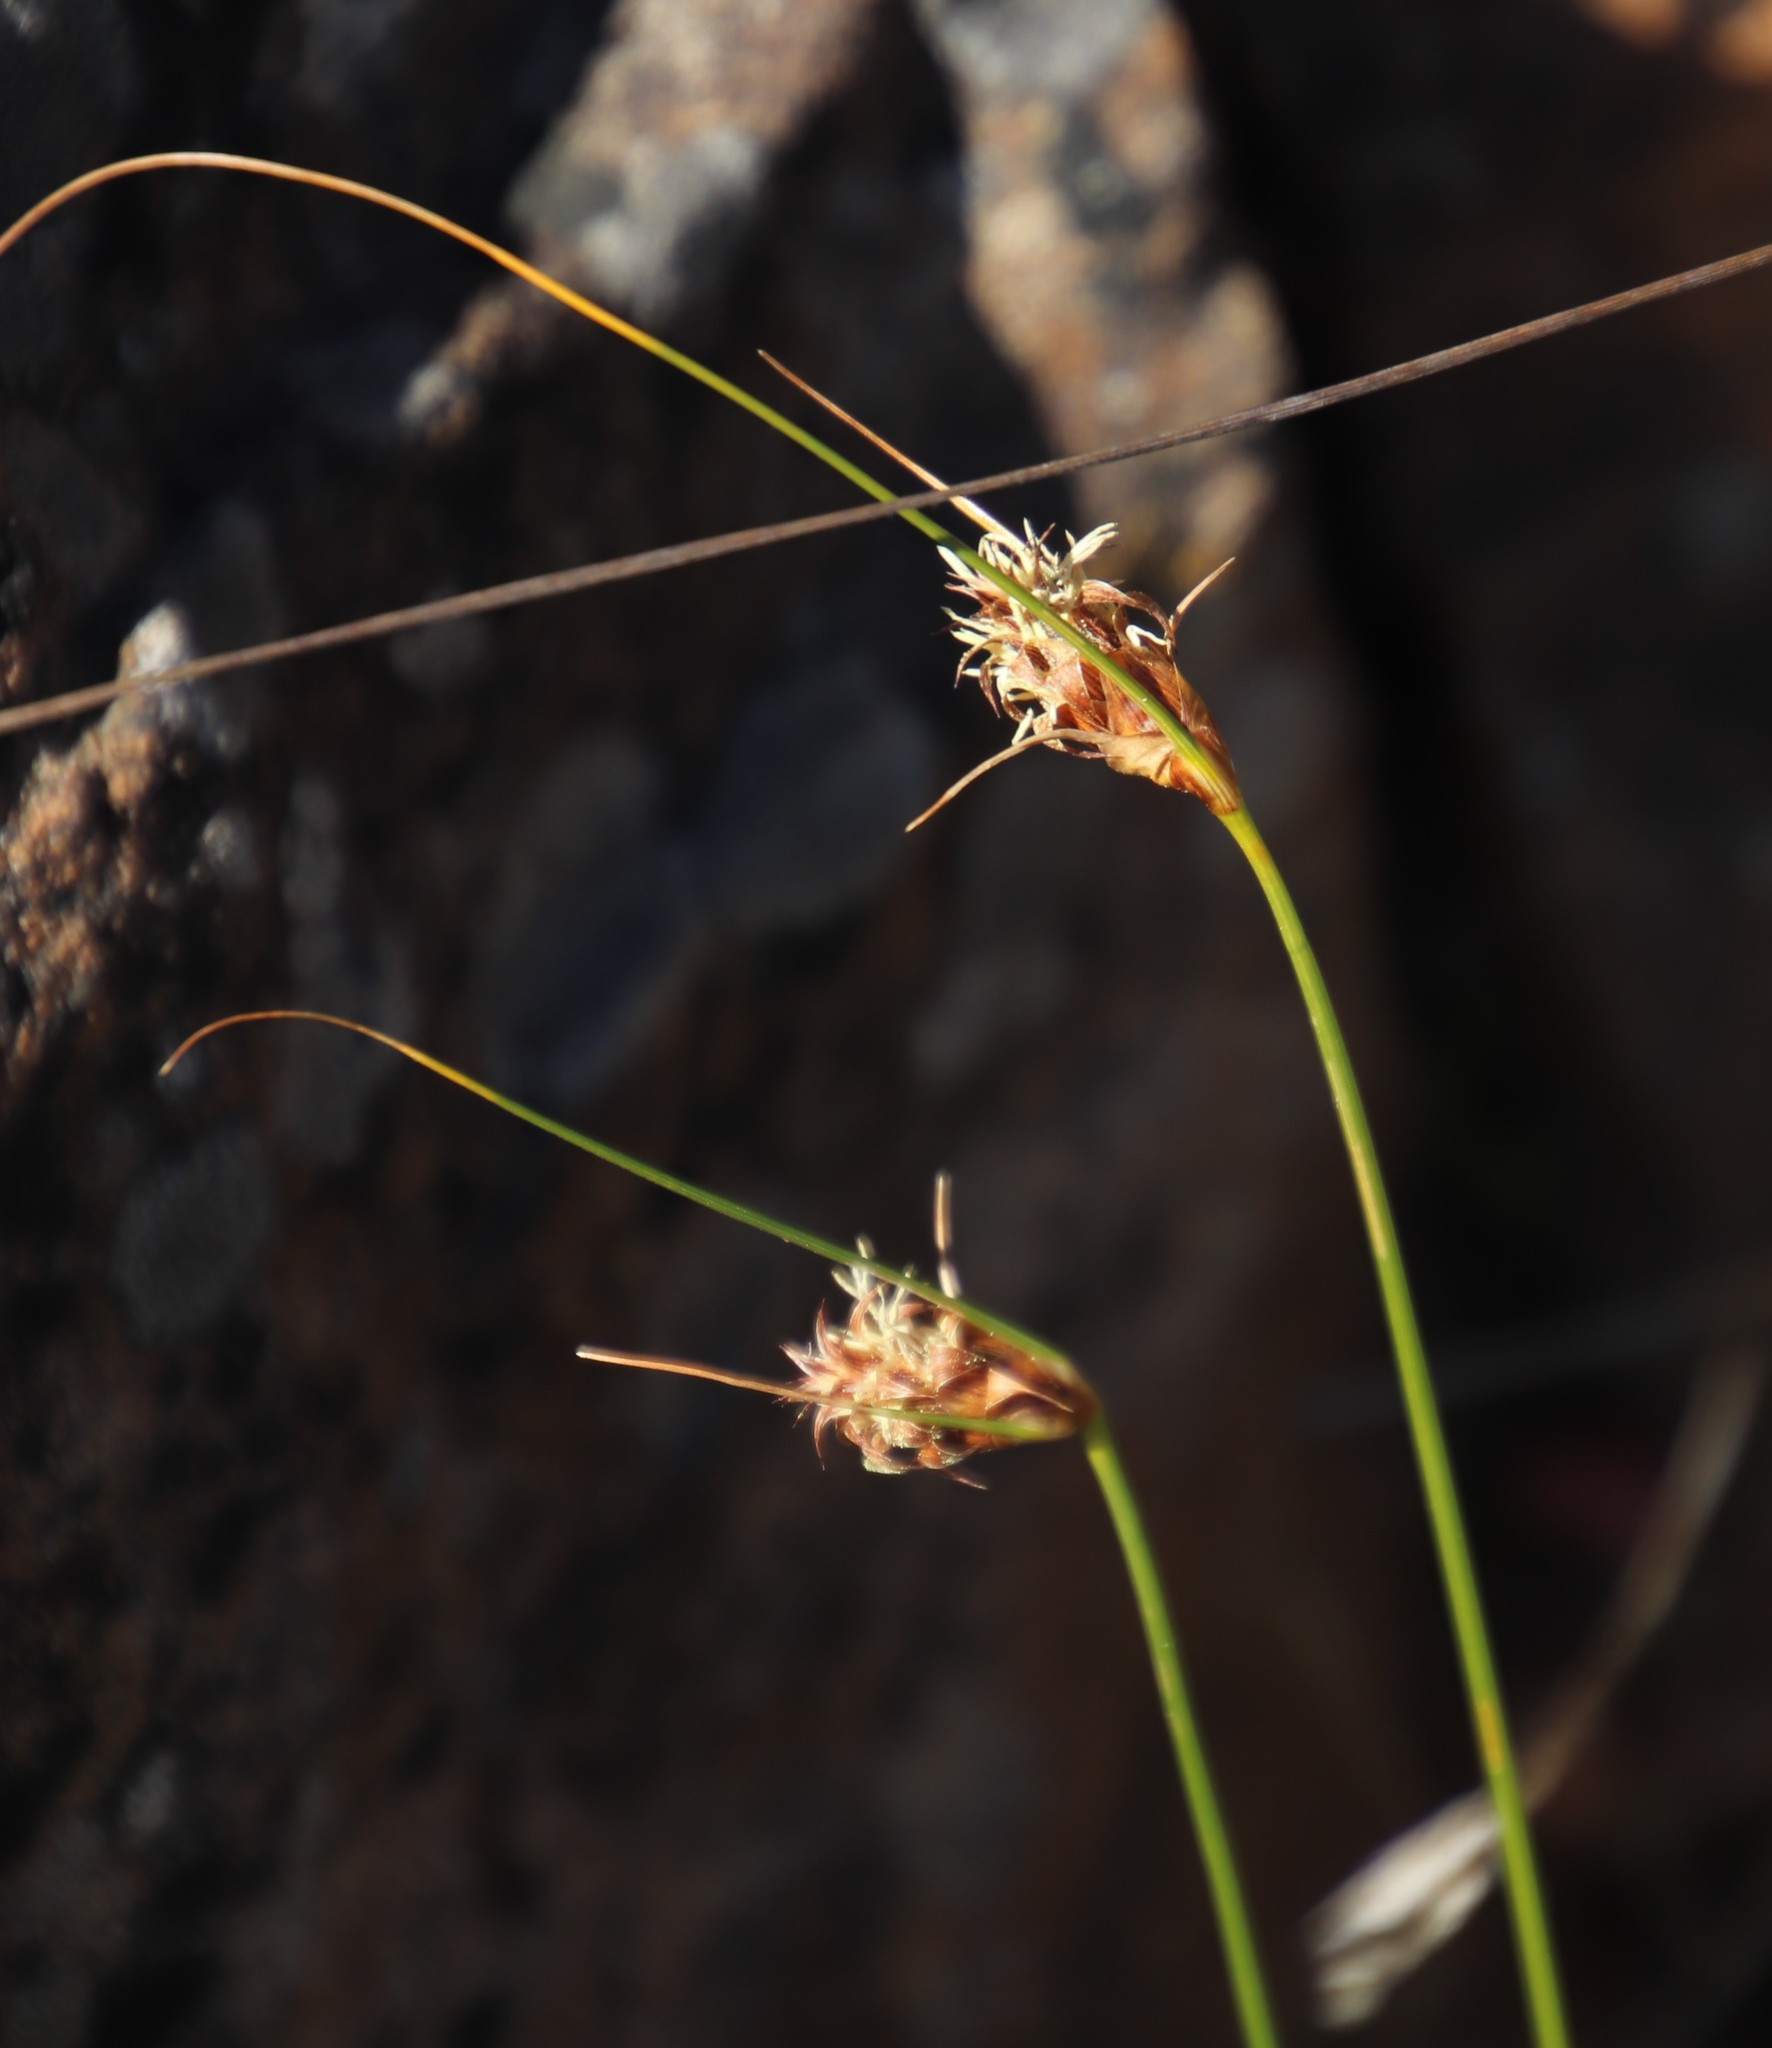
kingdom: Plantae
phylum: Tracheophyta
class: Liliopsida
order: Poales
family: Cyperaceae
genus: Ficinia
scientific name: Ficinia nigrescens
